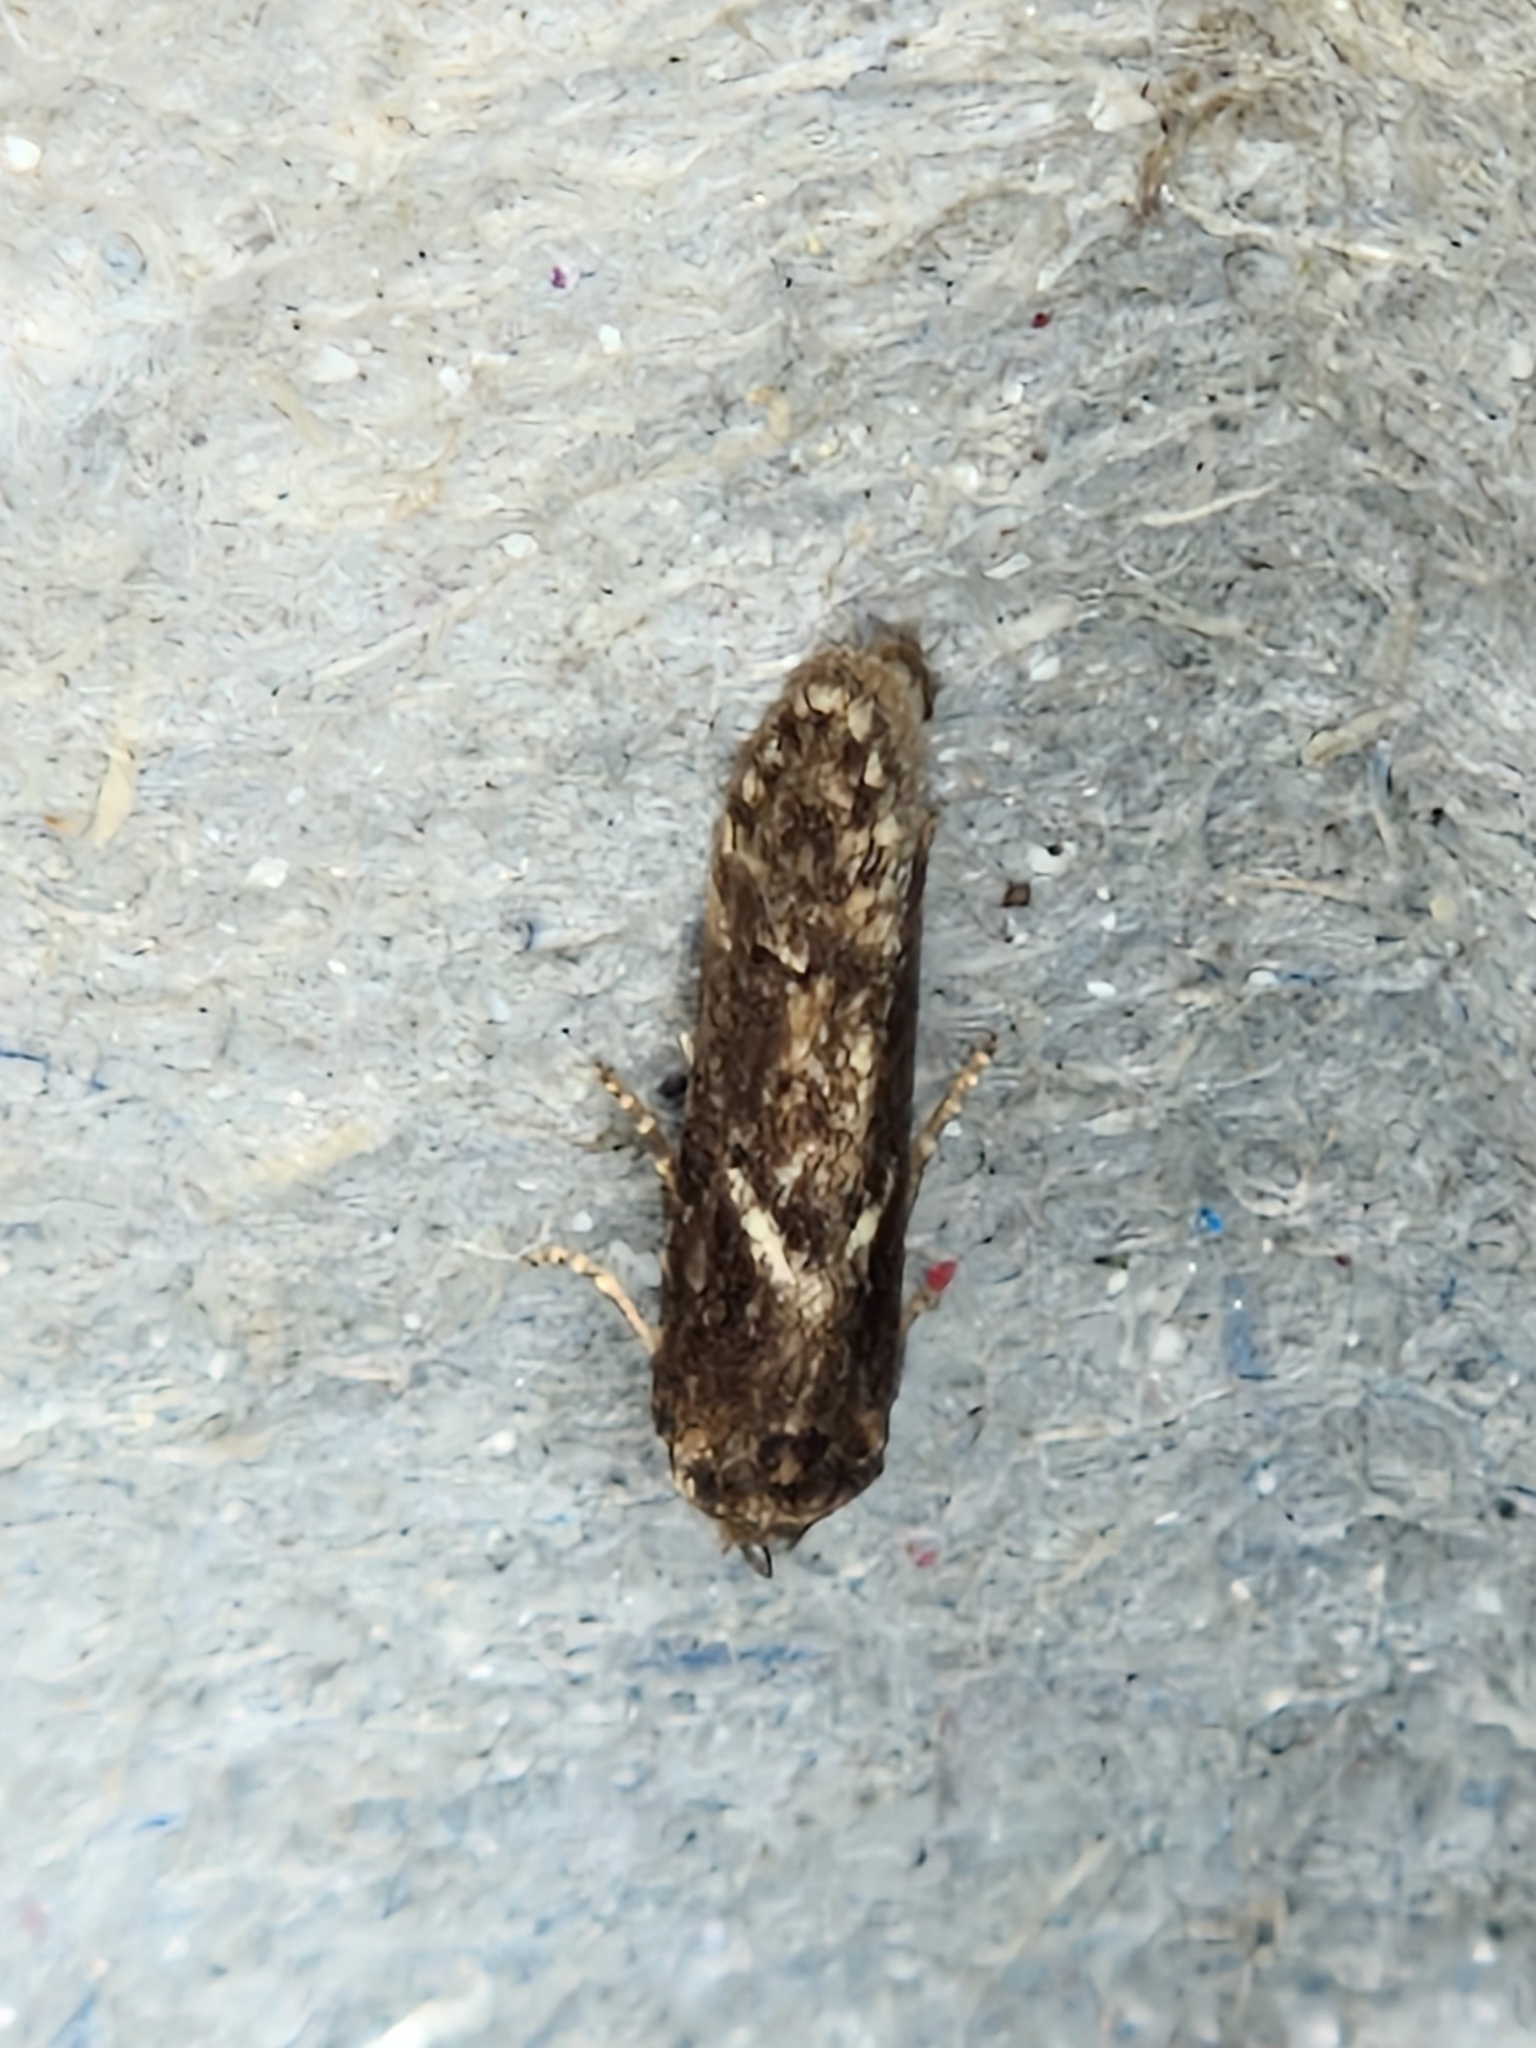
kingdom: Animalia
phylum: Arthropoda
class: Insecta
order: Lepidoptera
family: Blastobasidae
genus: Blastobasis
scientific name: Blastobasis adustella
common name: Dingy dowd
